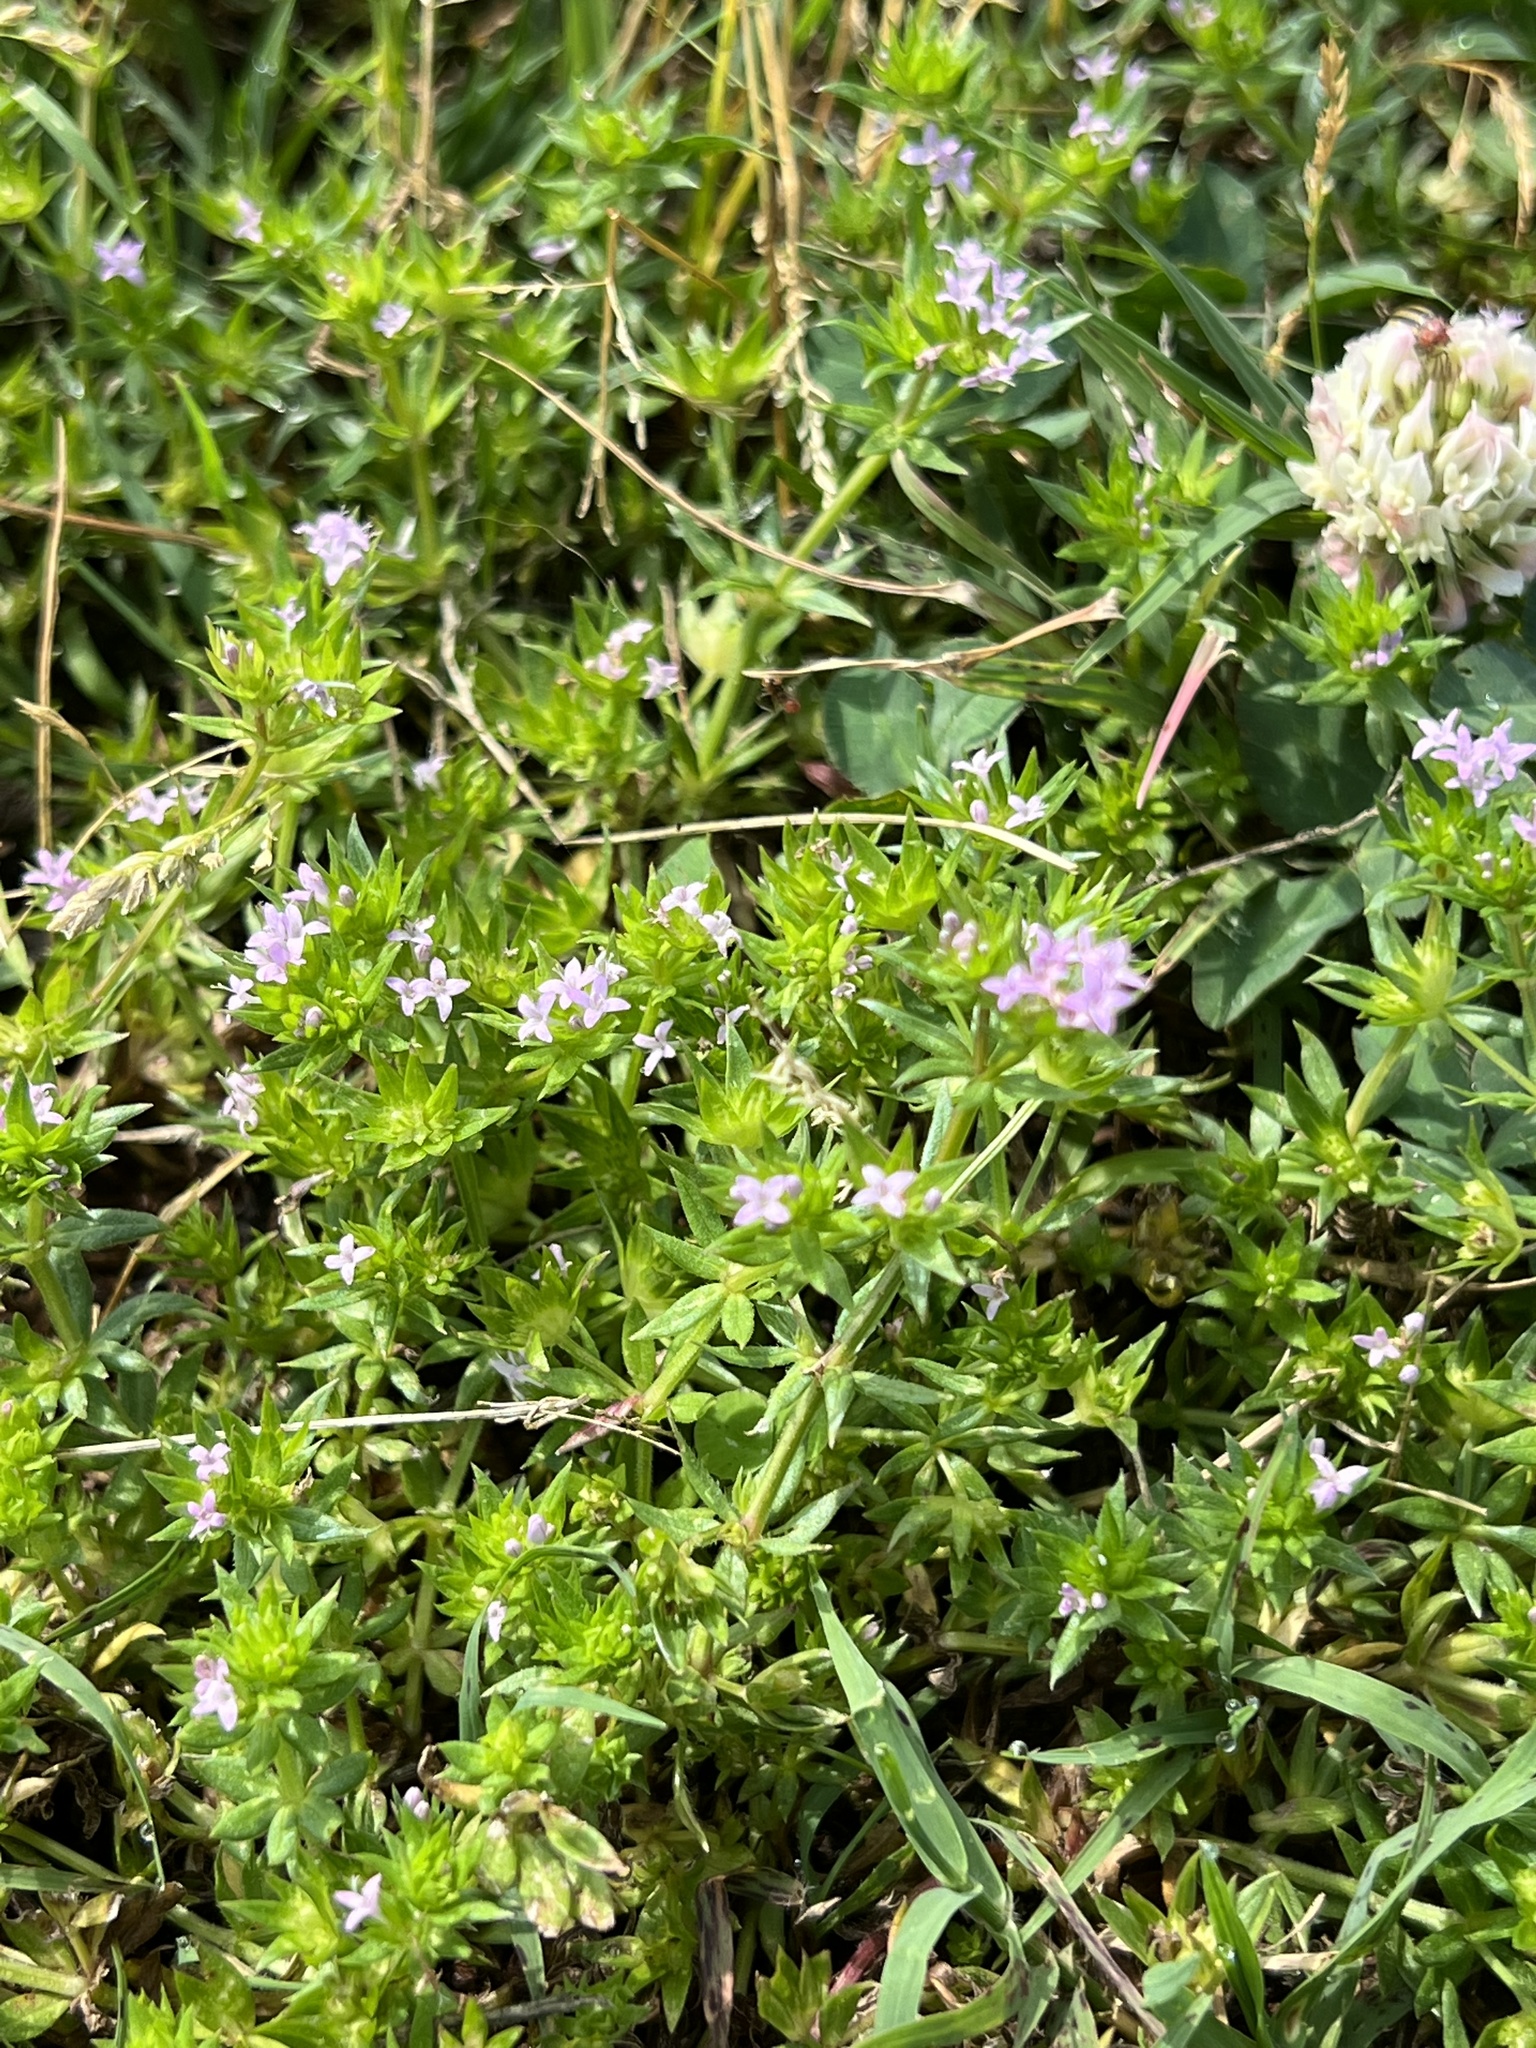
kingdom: Plantae
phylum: Tracheophyta
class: Magnoliopsida
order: Gentianales
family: Rubiaceae
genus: Sherardia
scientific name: Sherardia arvensis
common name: Field madder
